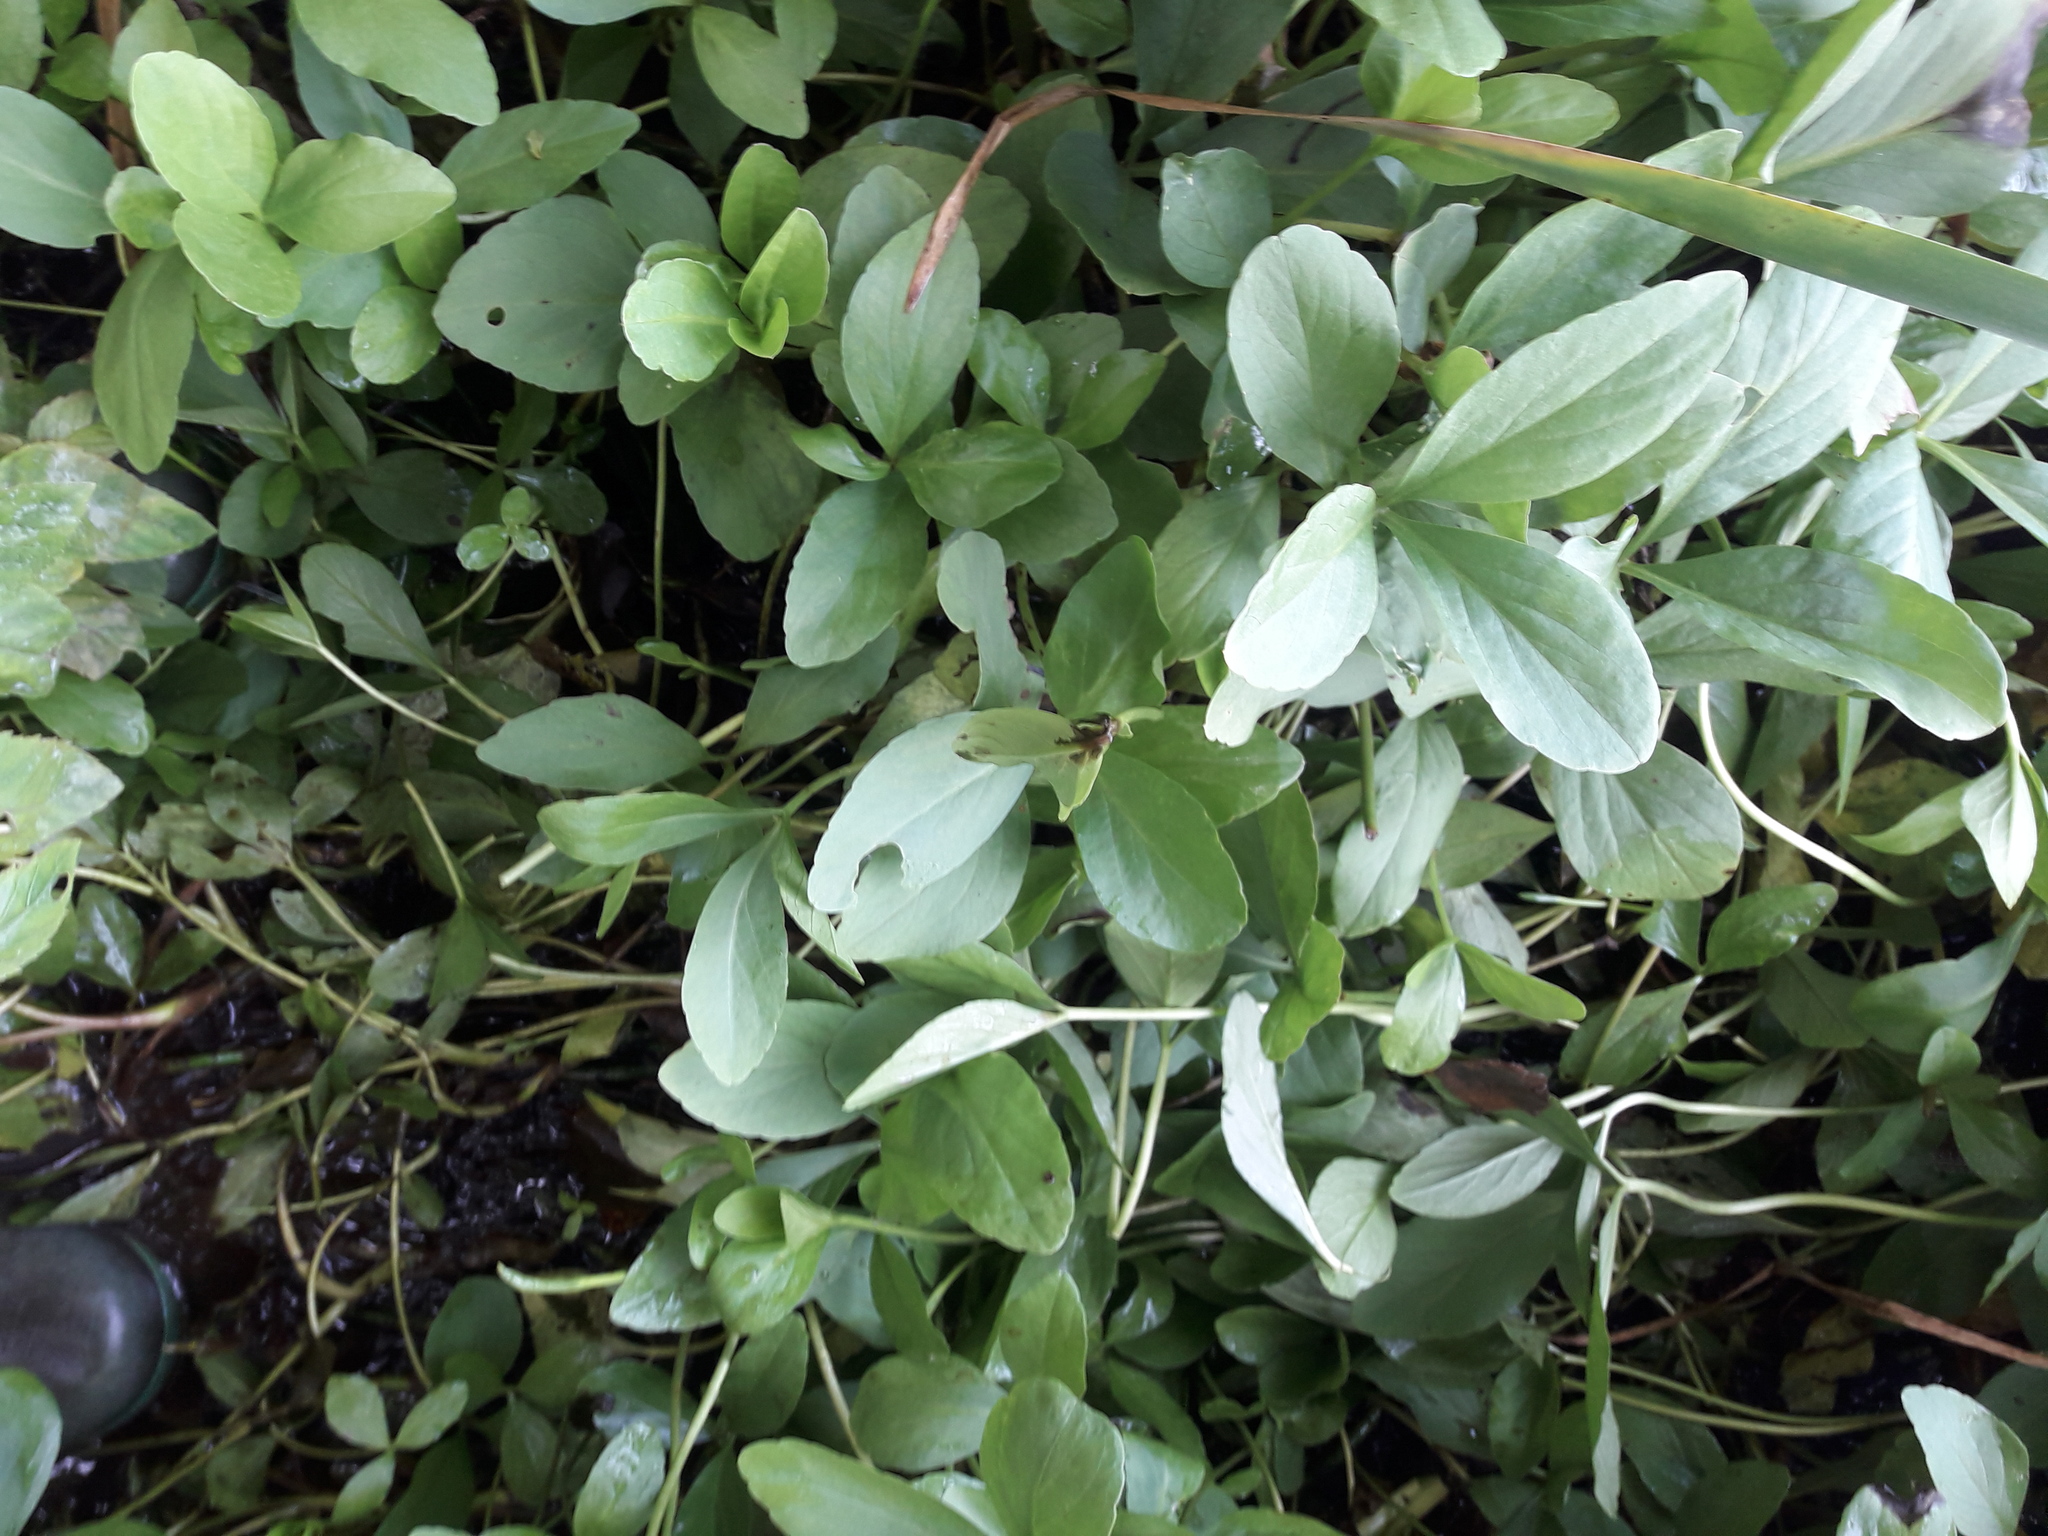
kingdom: Plantae
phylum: Tracheophyta
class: Liliopsida
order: Poales
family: Typhaceae
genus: Typha
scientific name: Typha latifolia
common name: Broadleaf cattail
